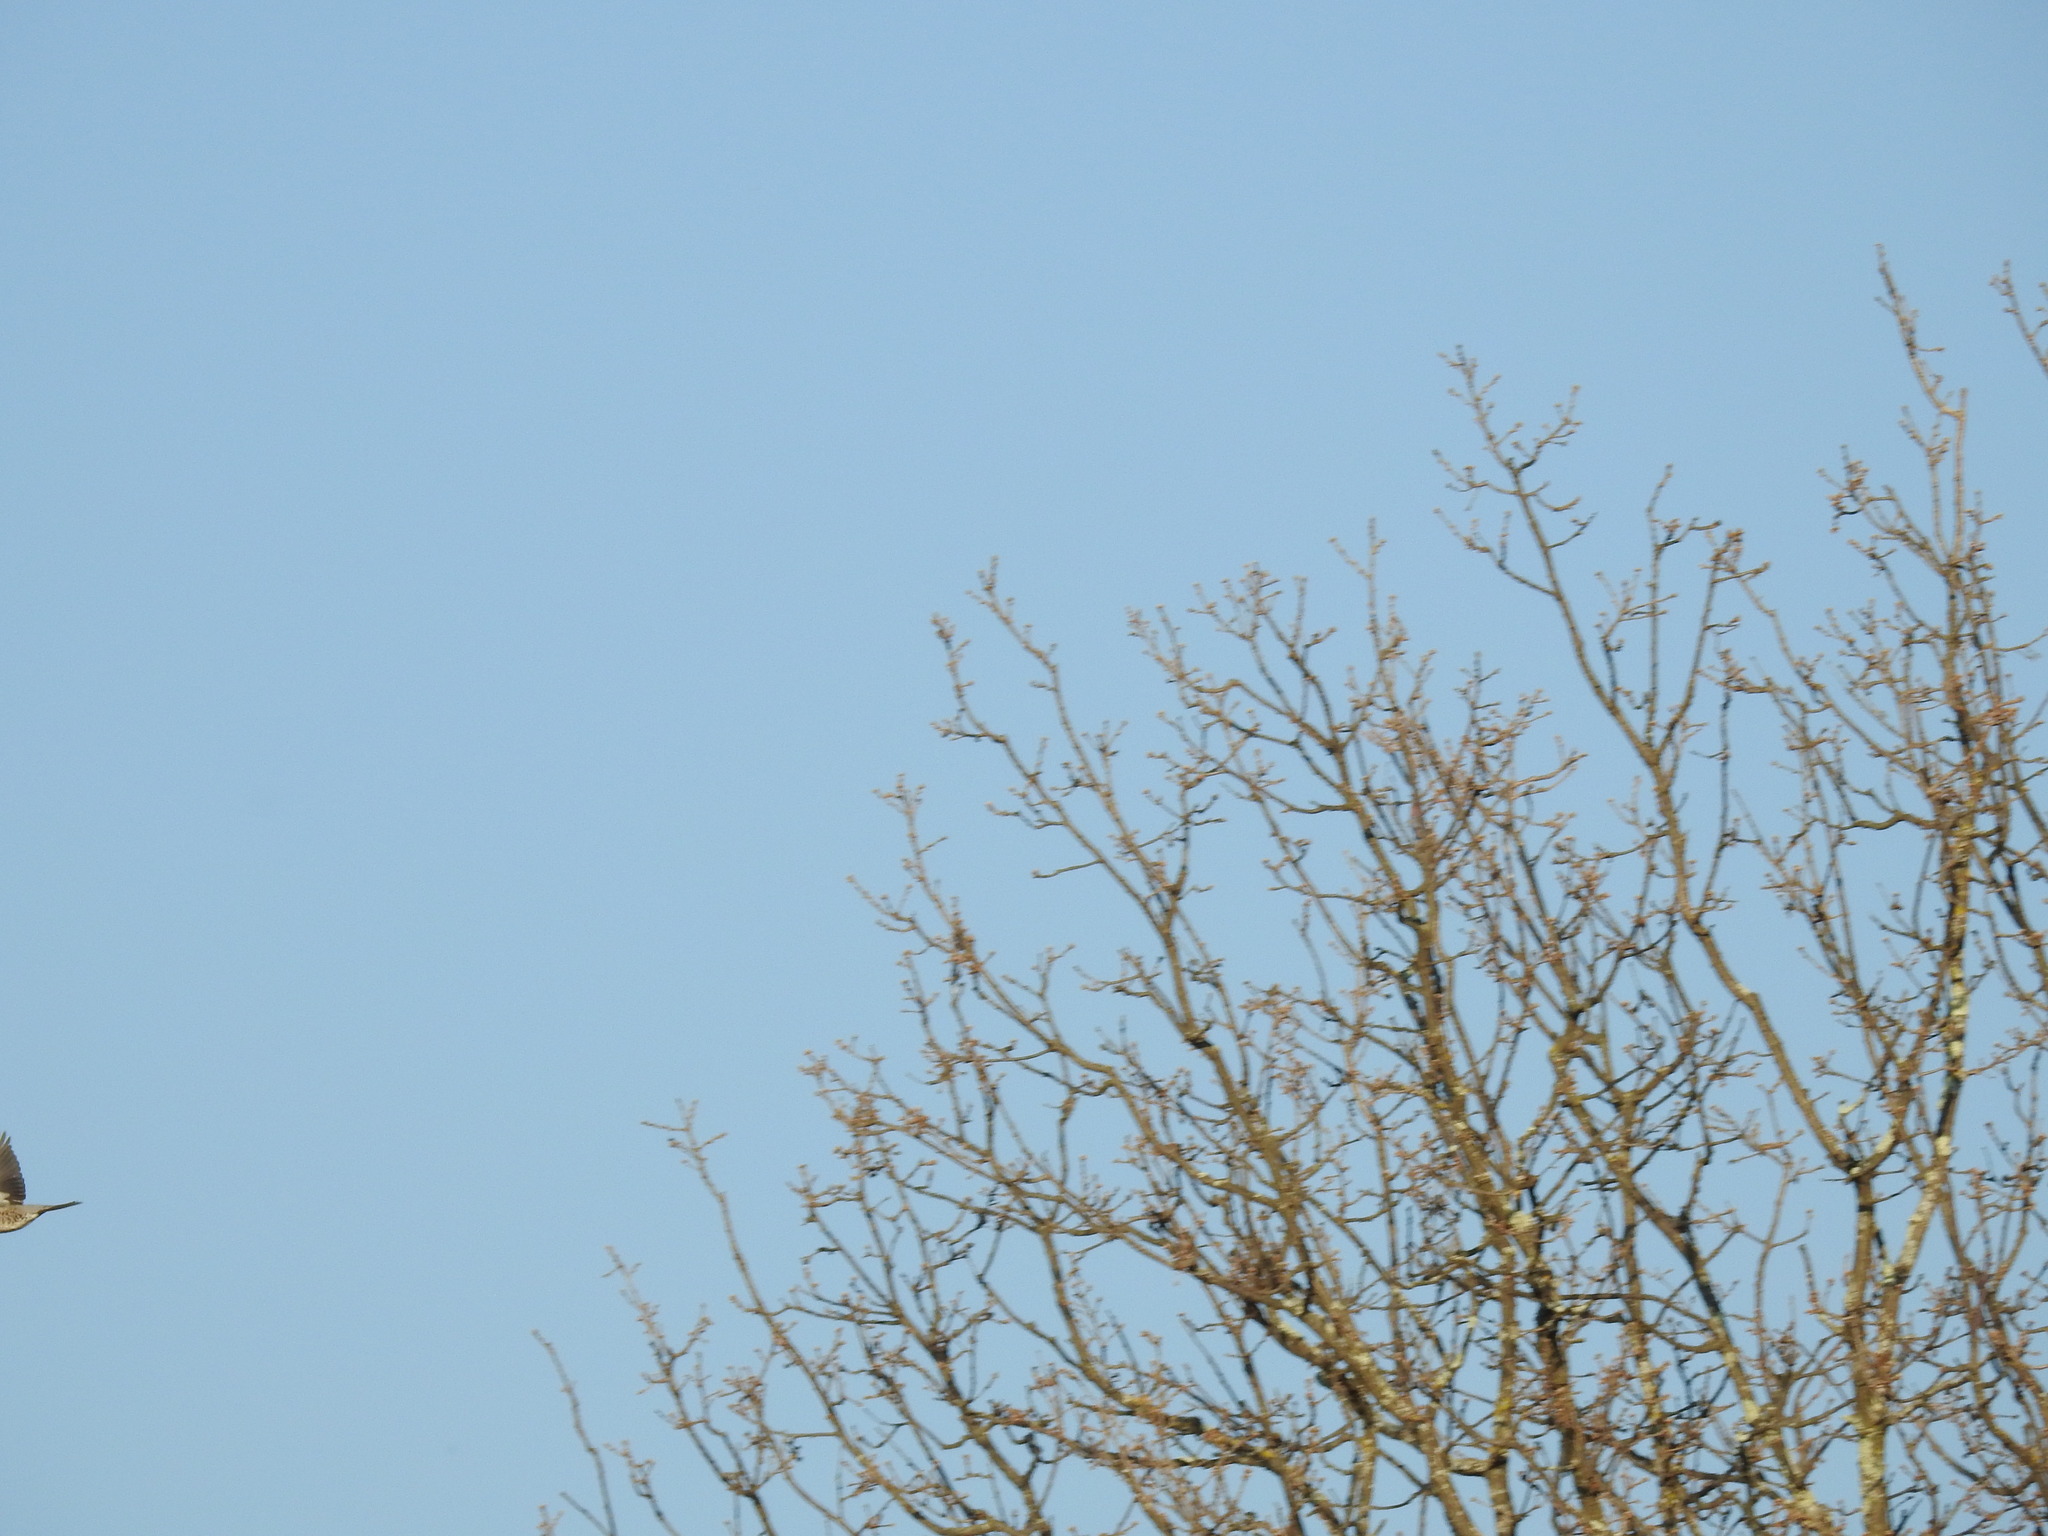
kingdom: Animalia
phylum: Chordata
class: Aves
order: Passeriformes
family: Turdidae
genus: Turdus
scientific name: Turdus pilaris
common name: Fieldfare
